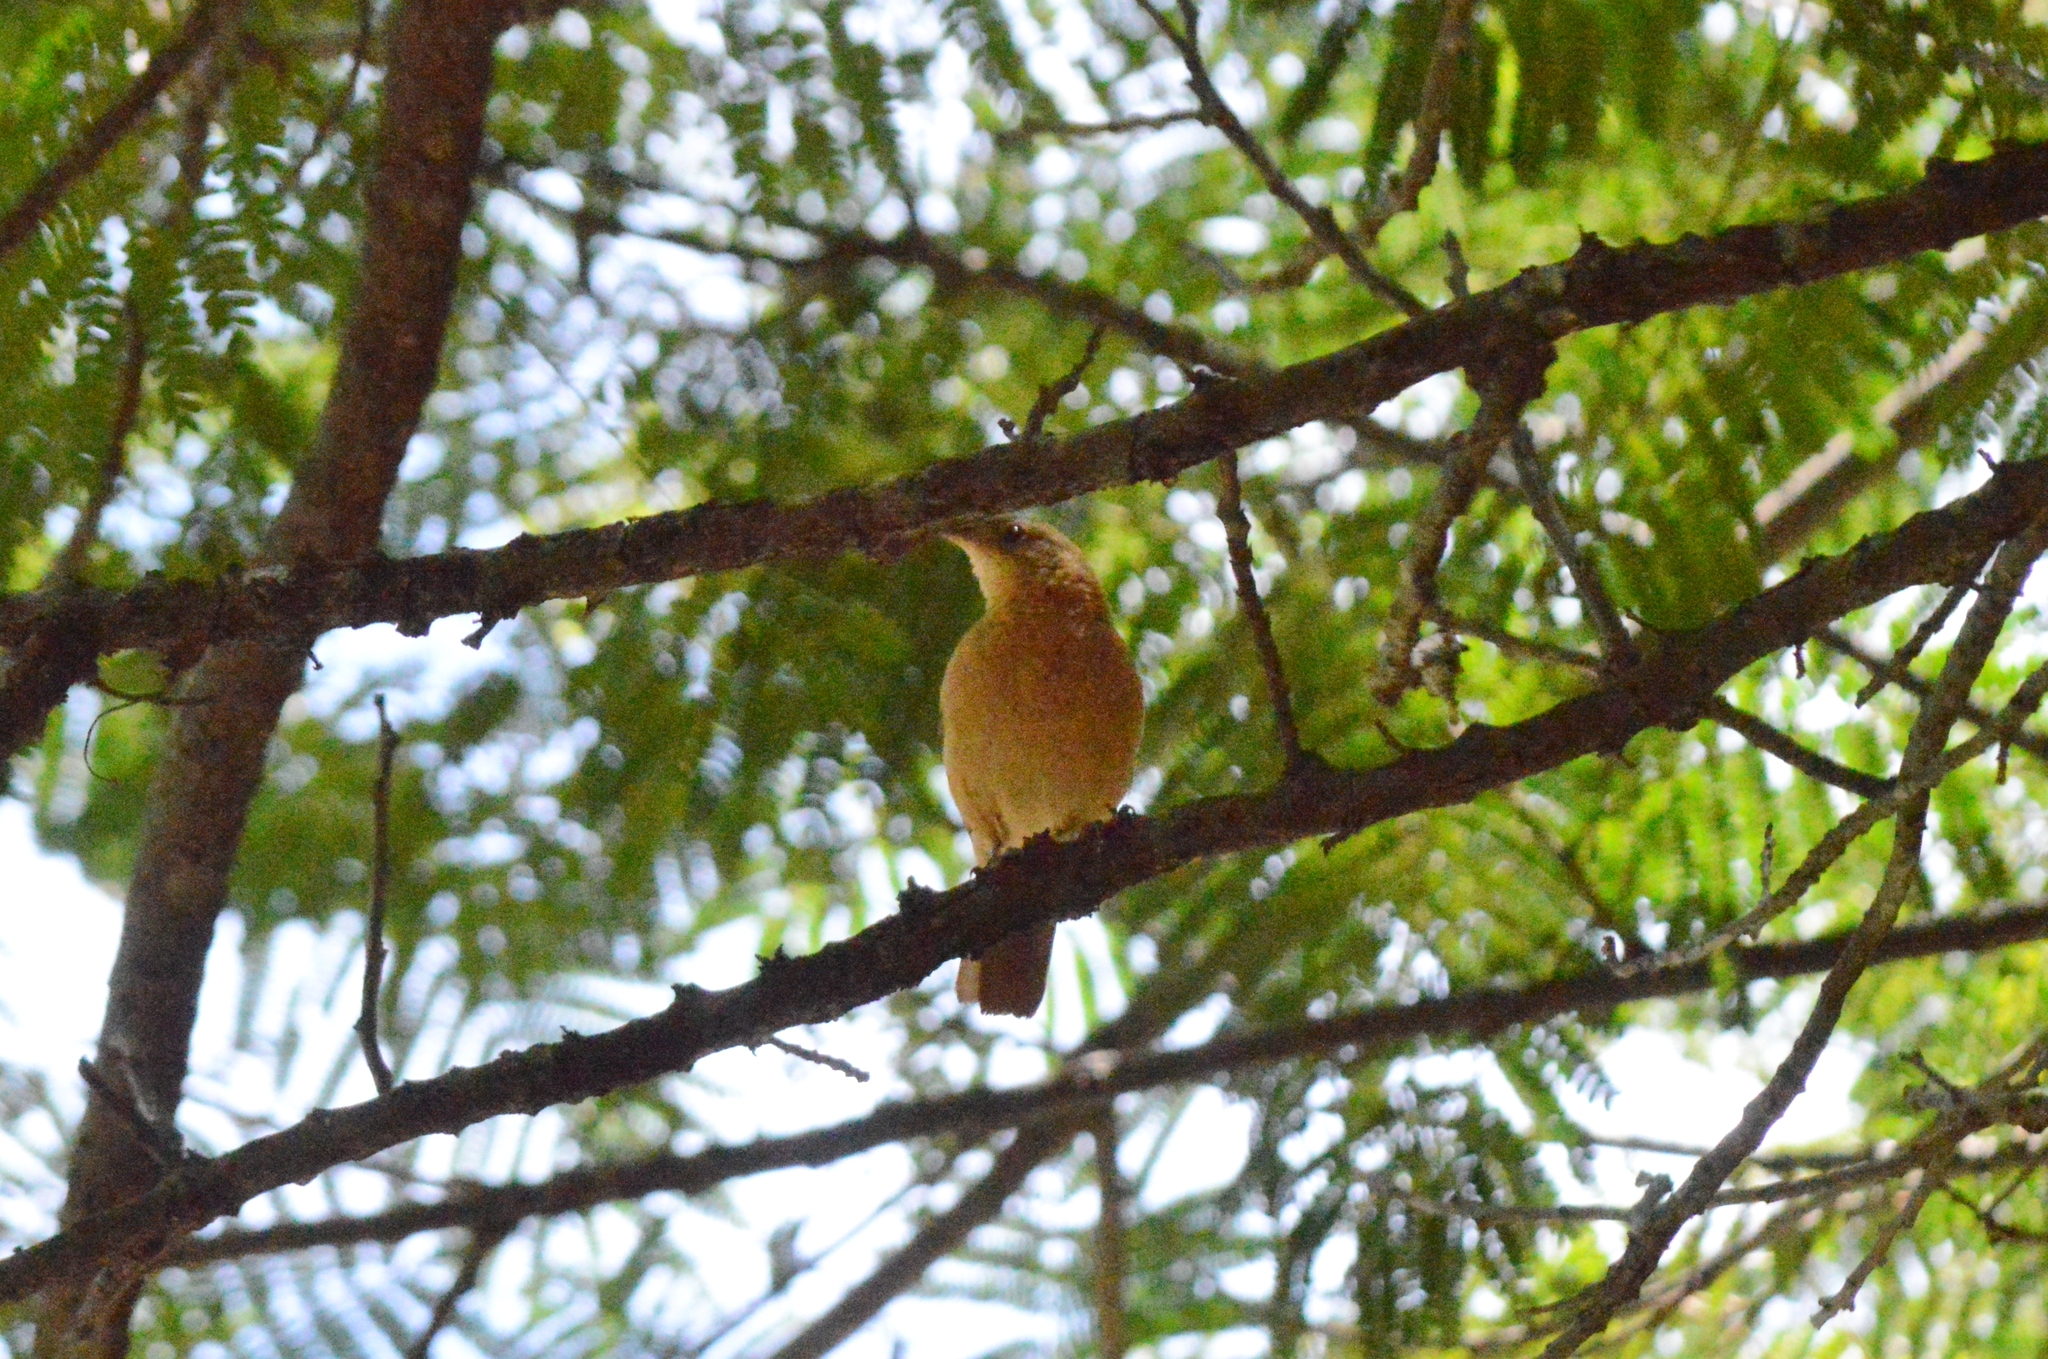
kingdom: Animalia
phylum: Chordata
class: Aves
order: Passeriformes
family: Furnariidae
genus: Furnarius
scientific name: Furnarius rufus
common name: Rufous hornero
